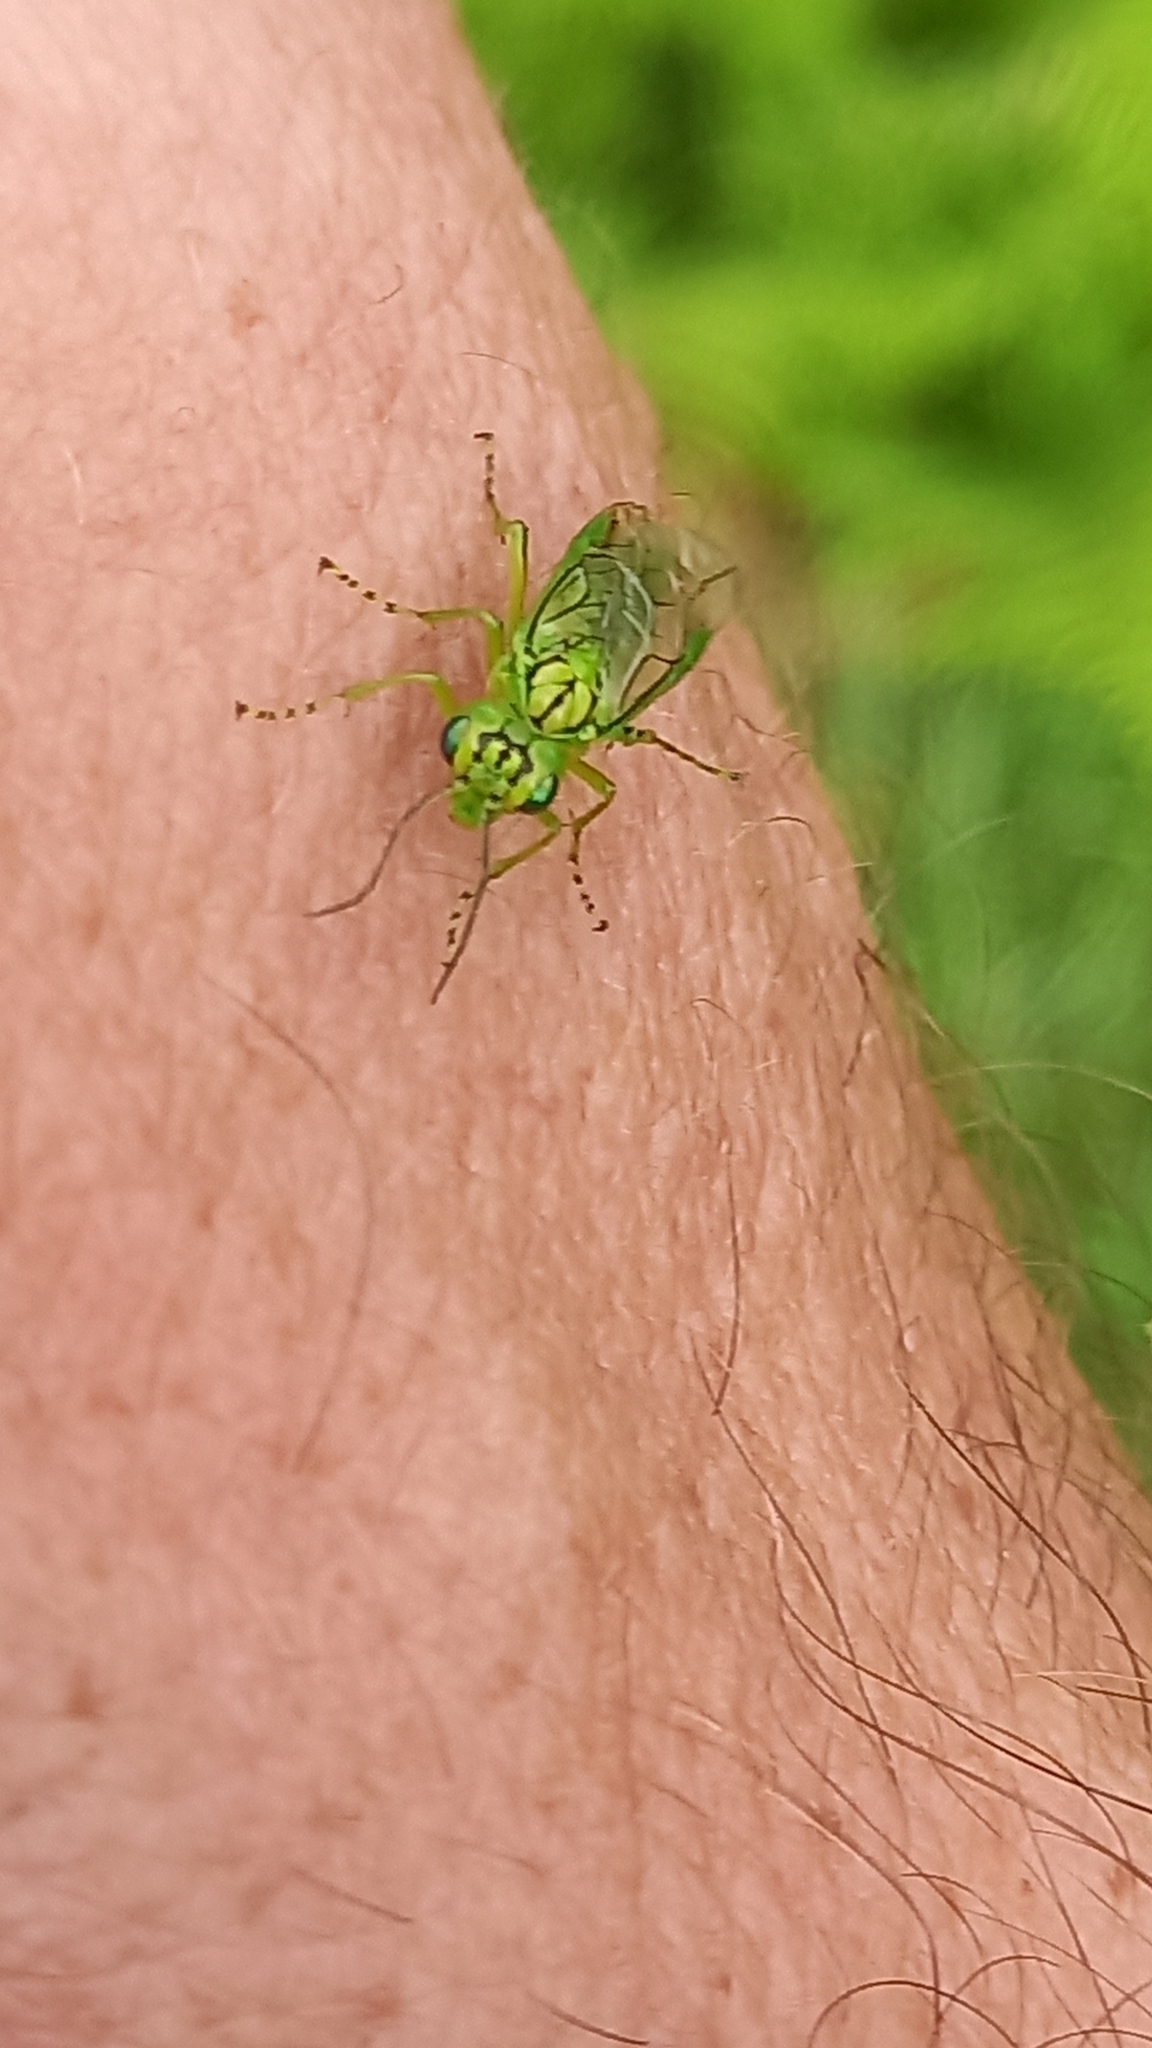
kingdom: Animalia
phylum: Arthropoda
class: Insecta
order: Hymenoptera
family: Tenthredinidae
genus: Rhogogaster
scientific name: Rhogogaster punctulata
